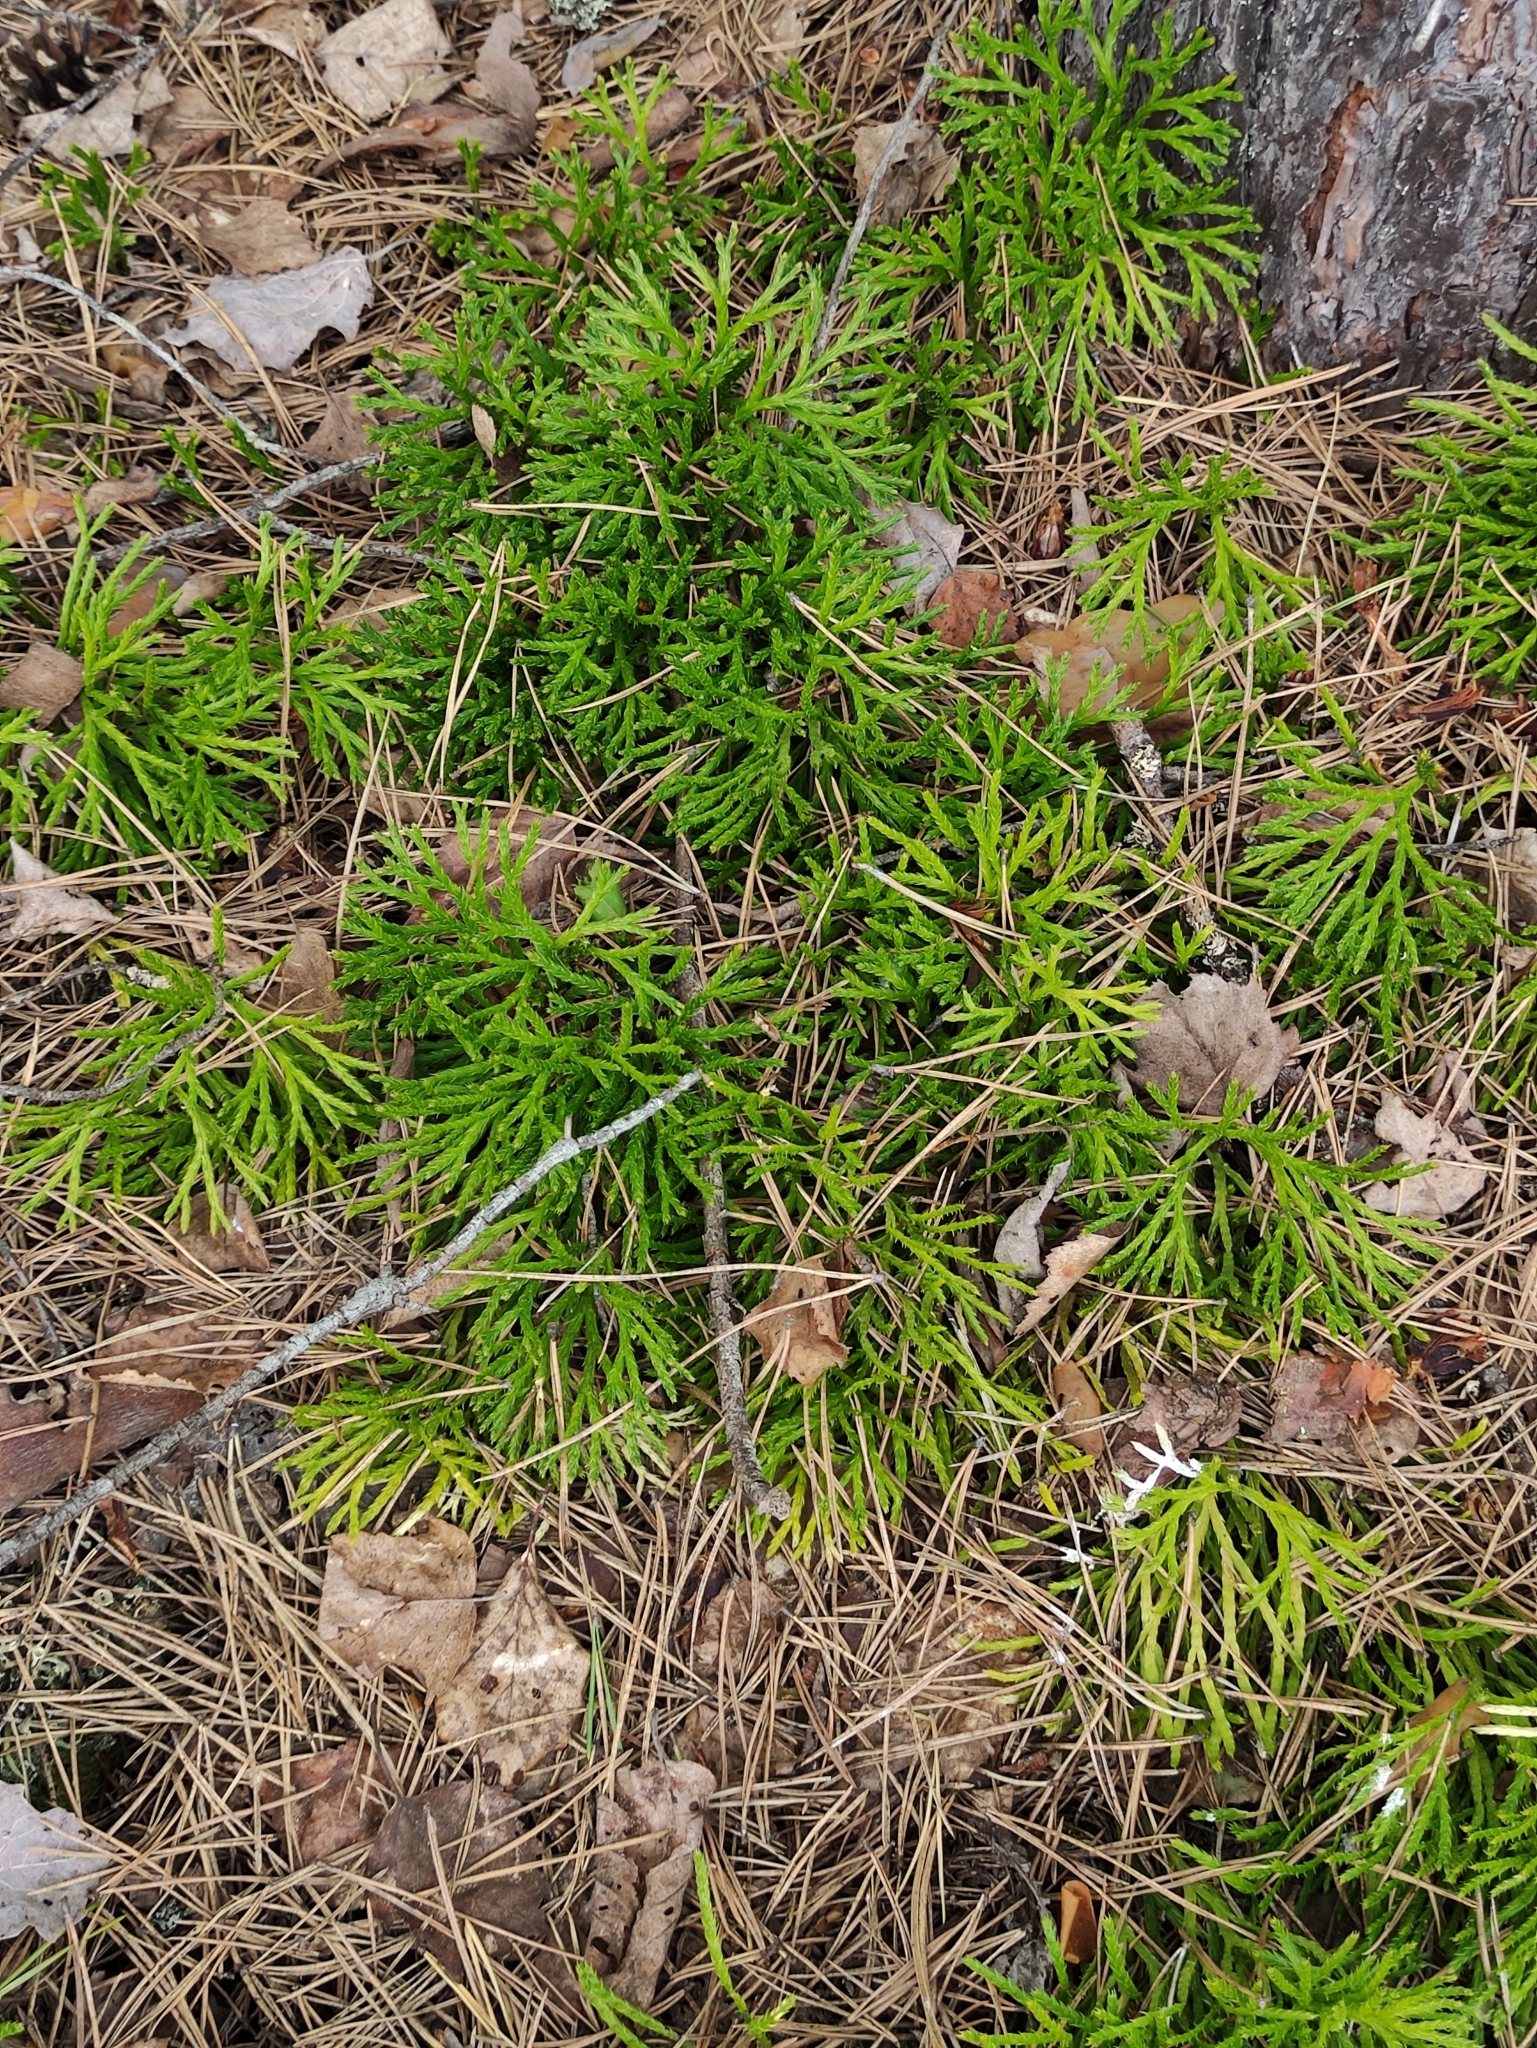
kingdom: Plantae
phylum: Tracheophyta
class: Lycopodiopsida
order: Lycopodiales
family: Lycopodiaceae
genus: Diphasiastrum
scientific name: Diphasiastrum complanatum
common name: Northern running-pine
